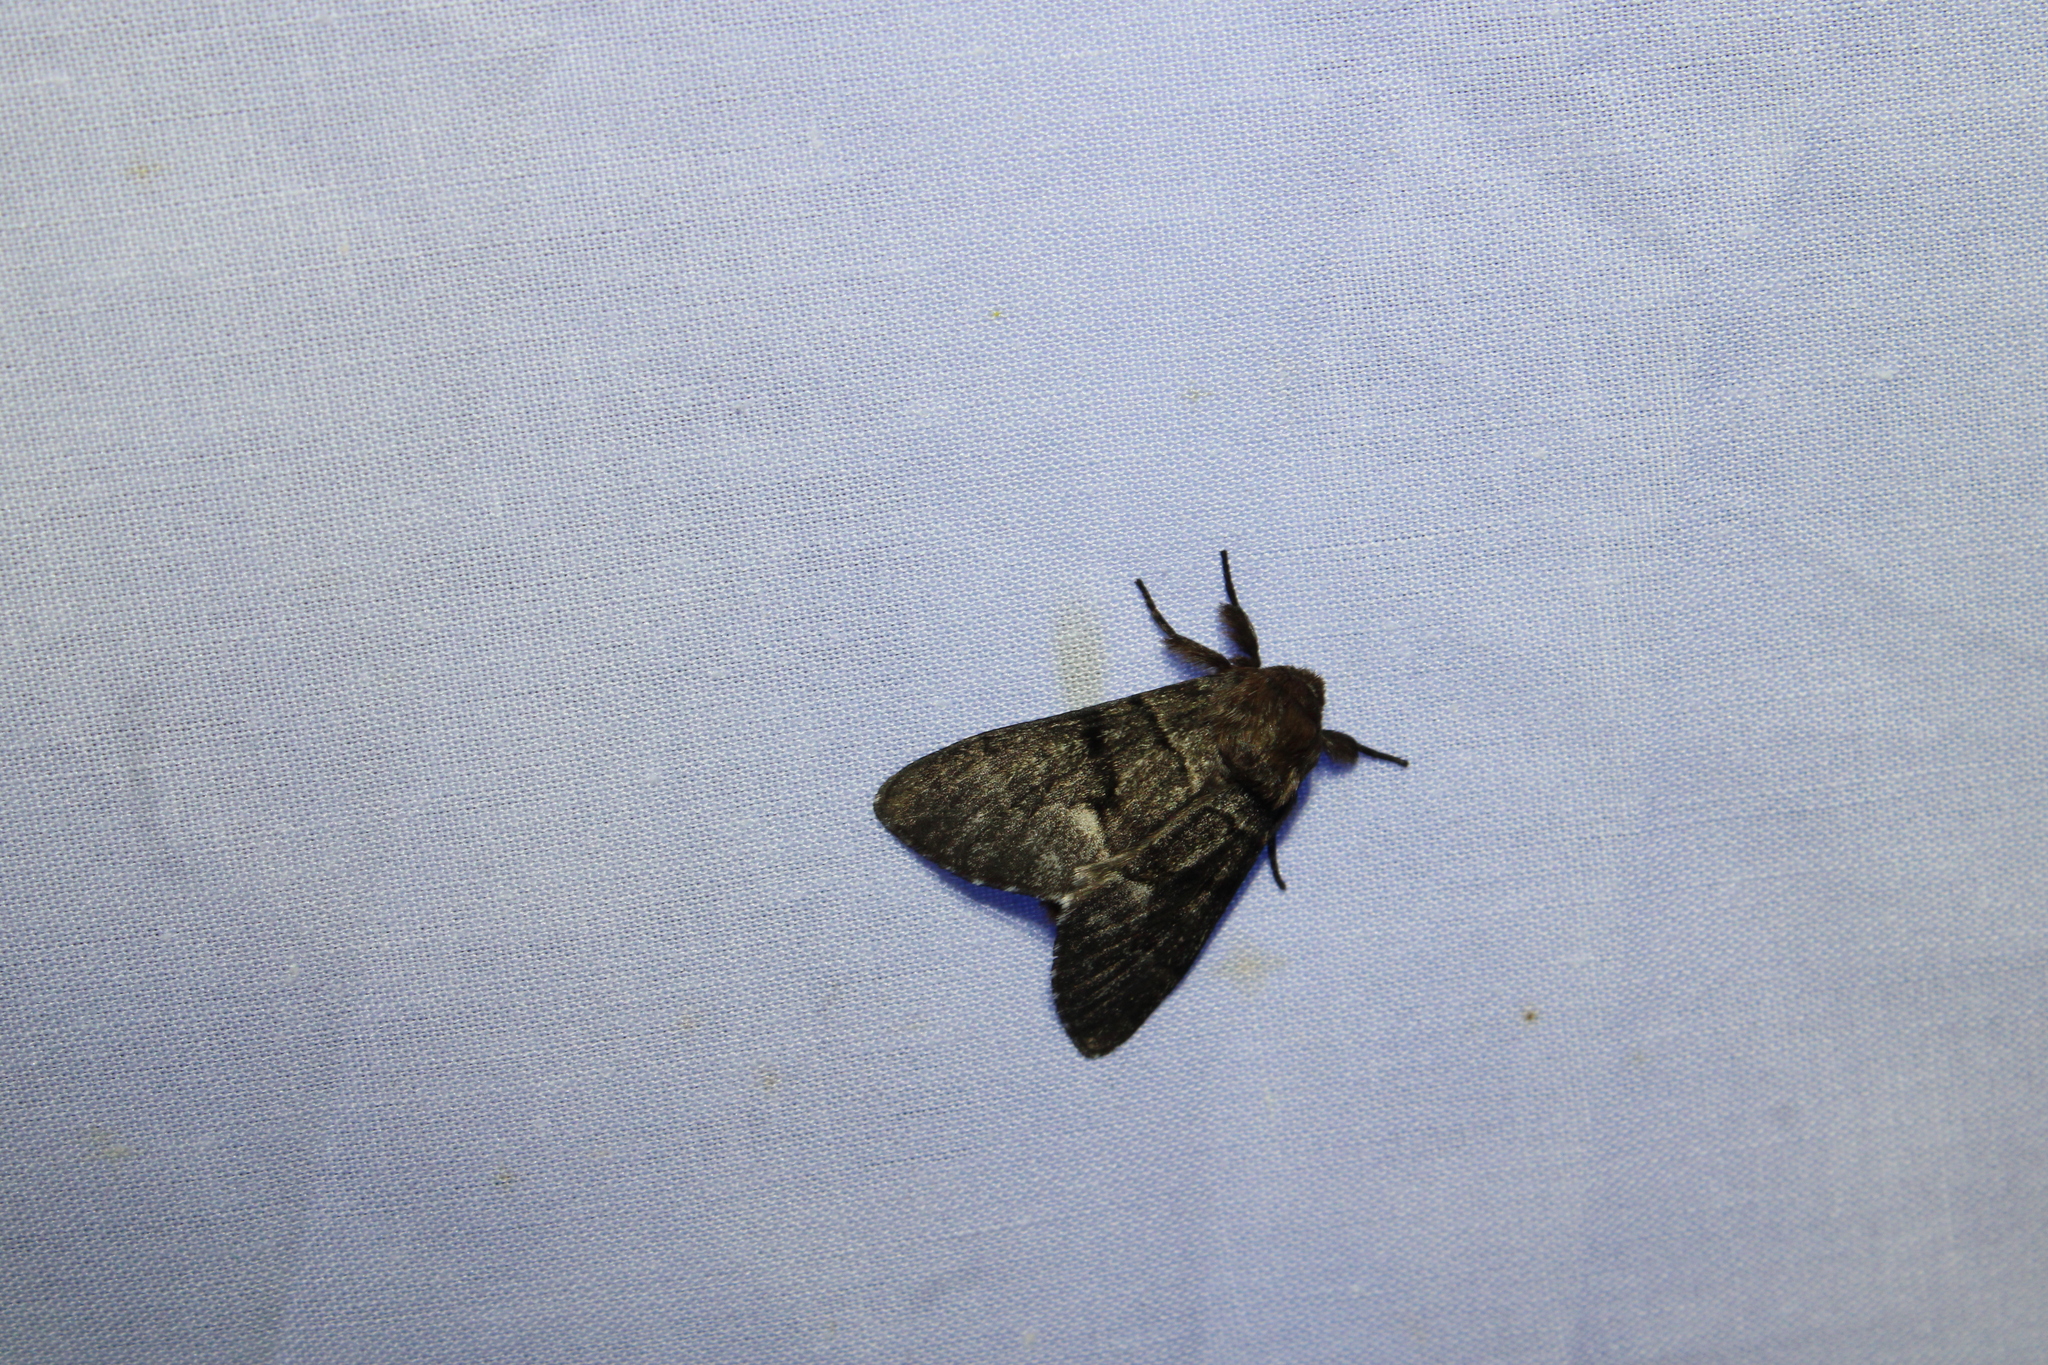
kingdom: Animalia
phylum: Arthropoda
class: Insecta
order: Lepidoptera
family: Noctuidae
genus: Panthea
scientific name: Panthea furcilla
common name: Eastern panthea moth
